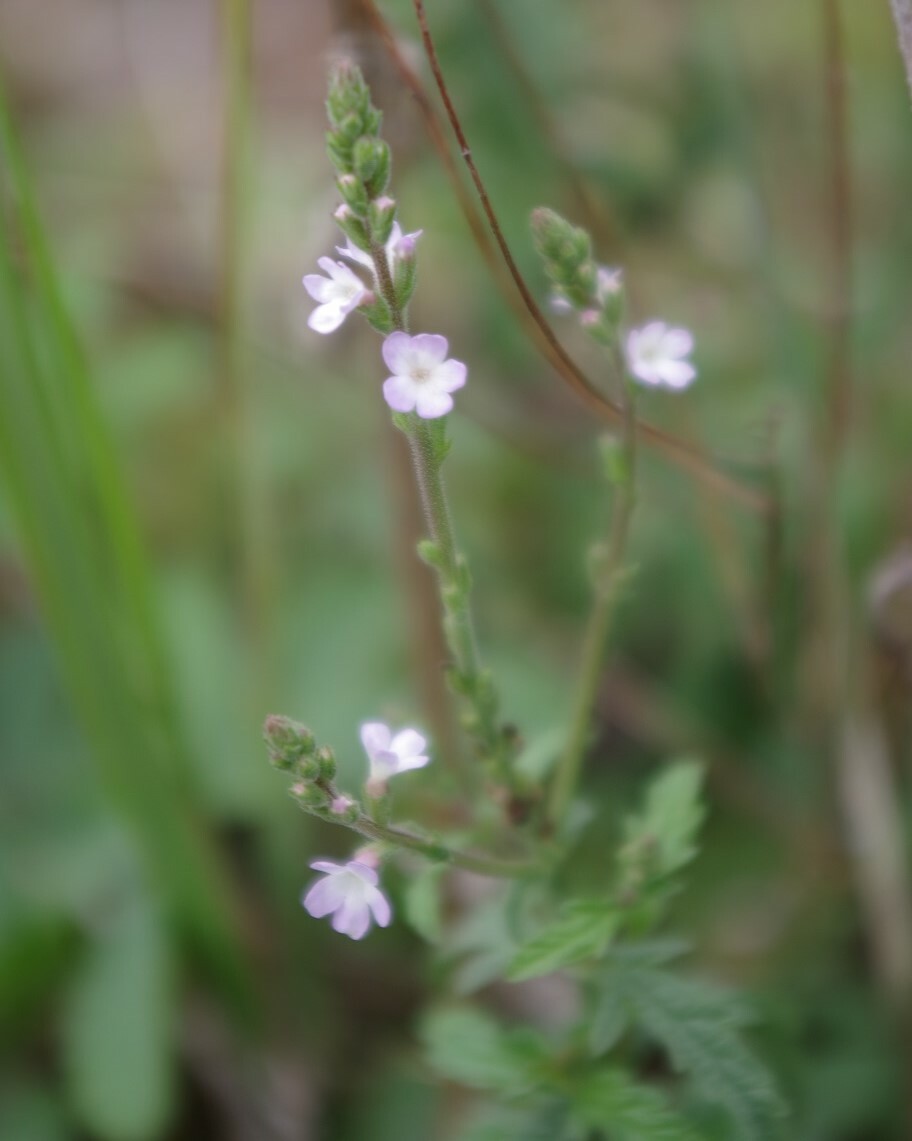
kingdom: Plantae
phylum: Tracheophyta
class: Magnoliopsida
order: Lamiales
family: Verbenaceae
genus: Verbena
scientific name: Verbena officinalis
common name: Vervain
